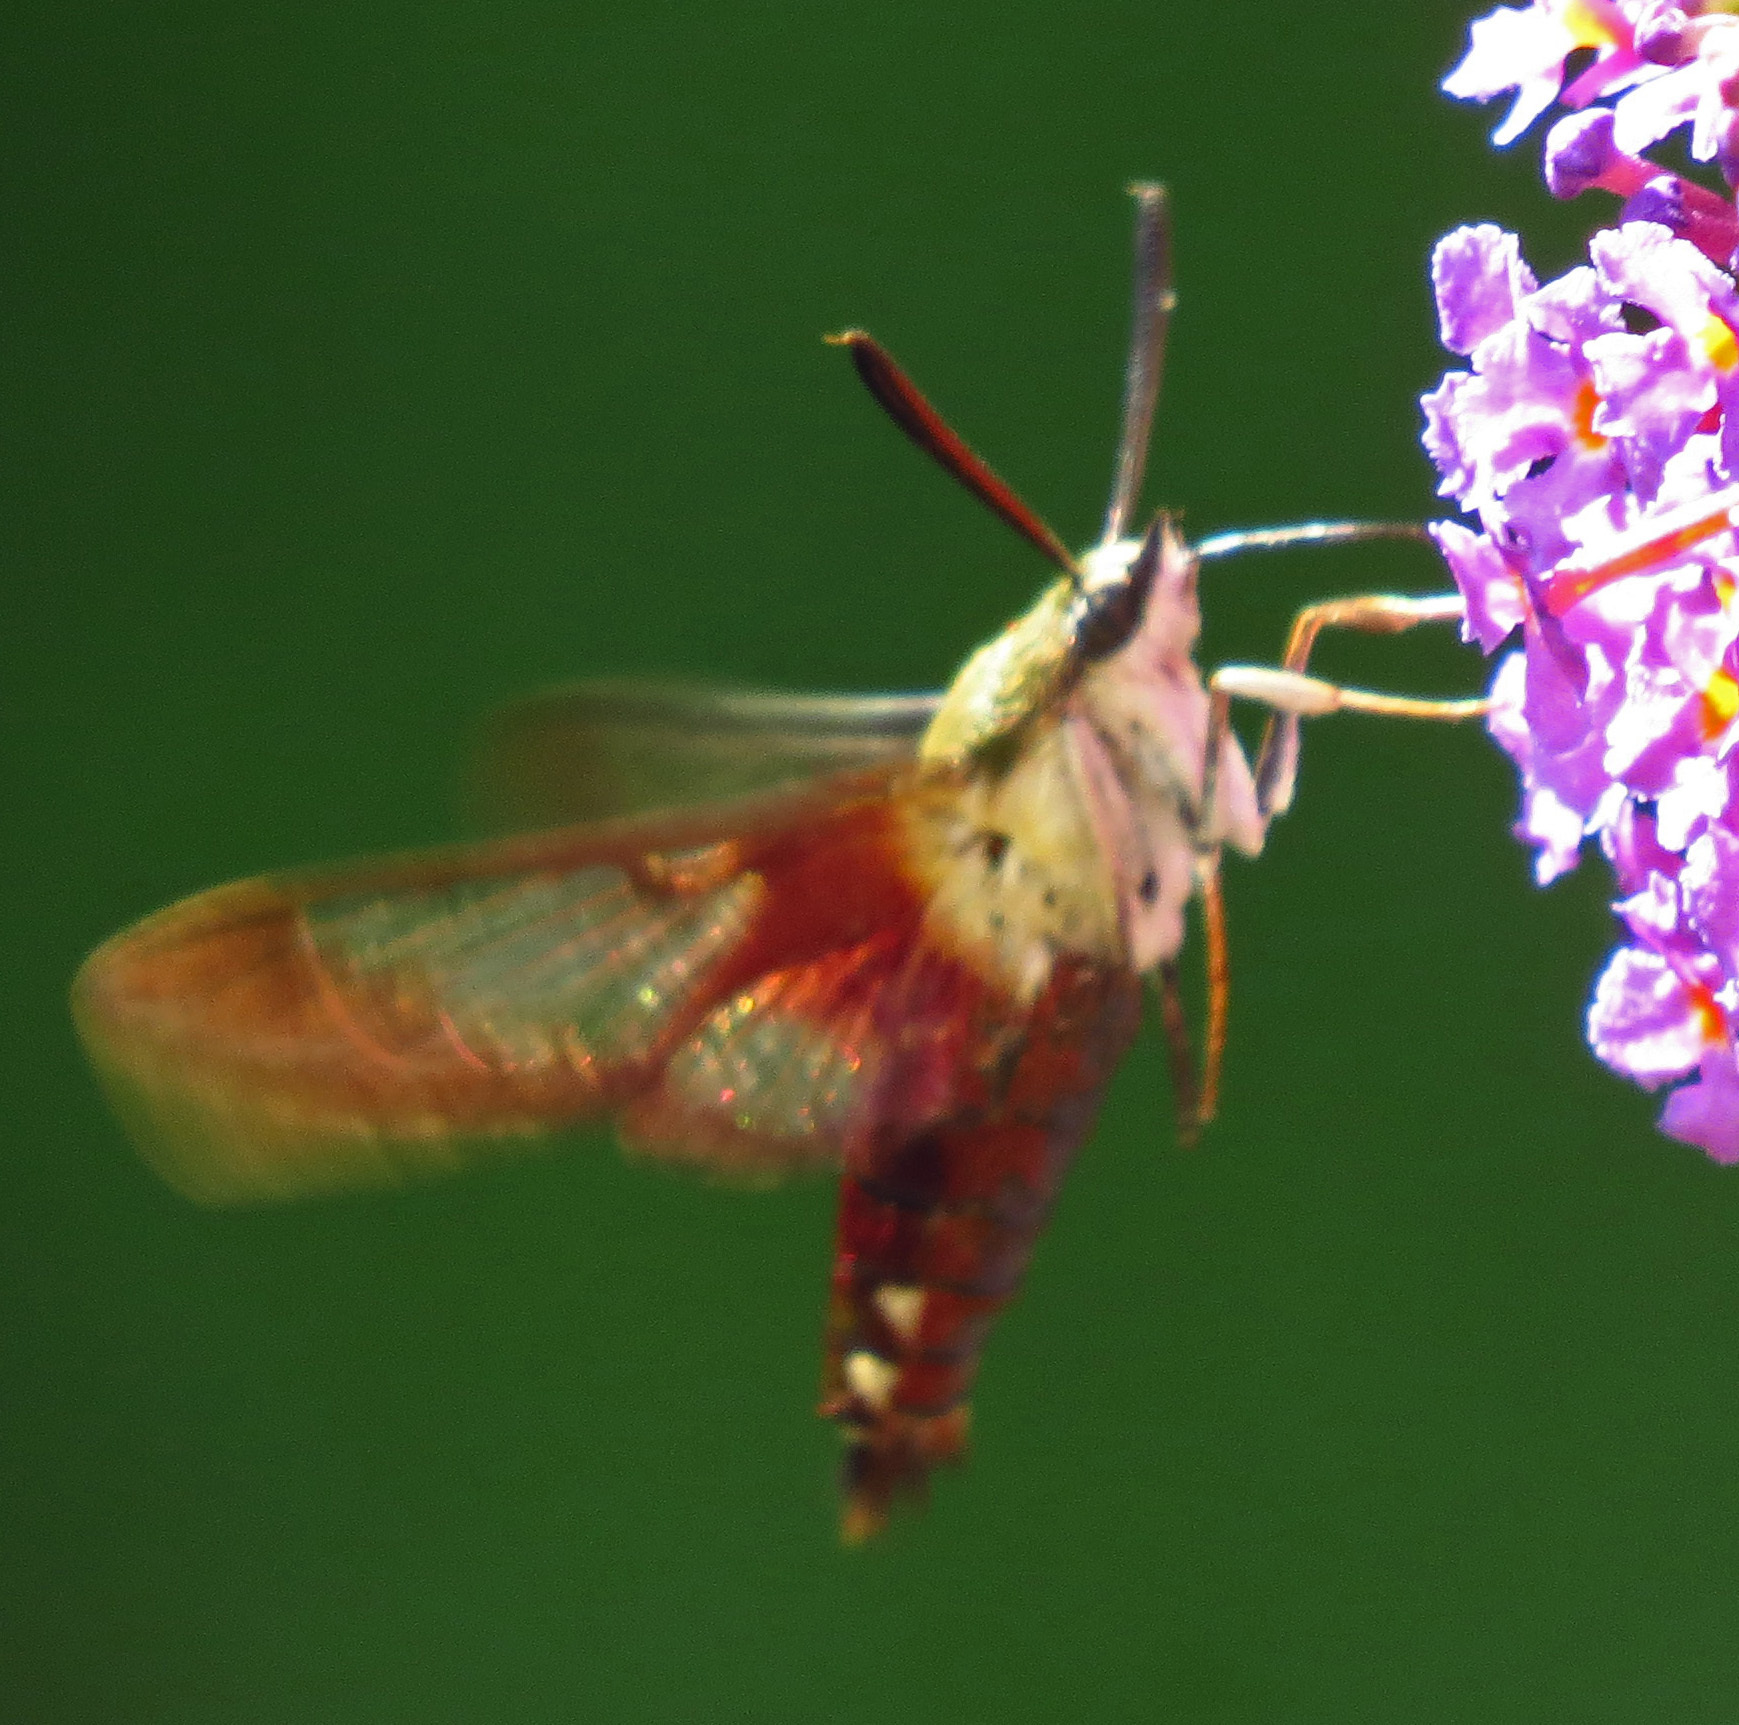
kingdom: Animalia
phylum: Arthropoda
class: Insecta
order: Lepidoptera
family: Sphingidae
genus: Hemaris
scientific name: Hemaris thysbe
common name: Common clear-wing
